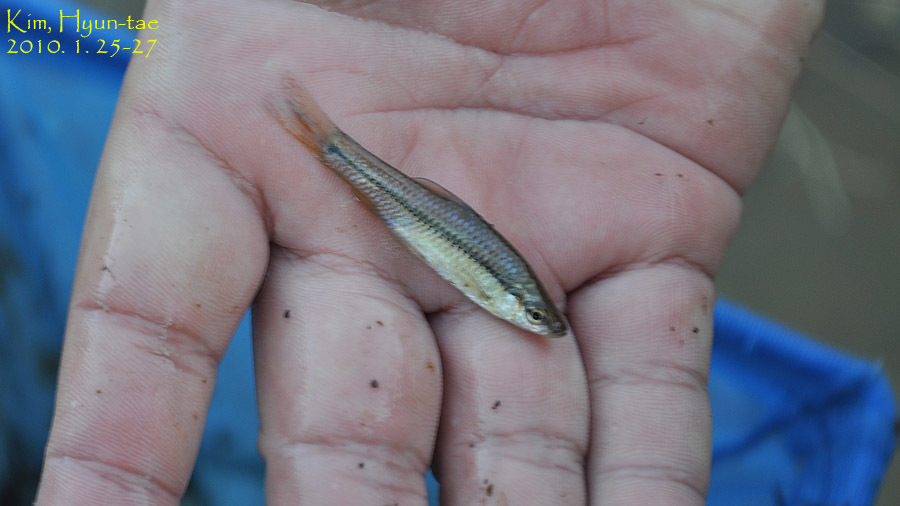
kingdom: Animalia
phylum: Chordata
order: Cypriniformes
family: Cyprinidae
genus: Pseudorasbora
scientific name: Pseudorasbora parva
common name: Topmouth gudgeon
